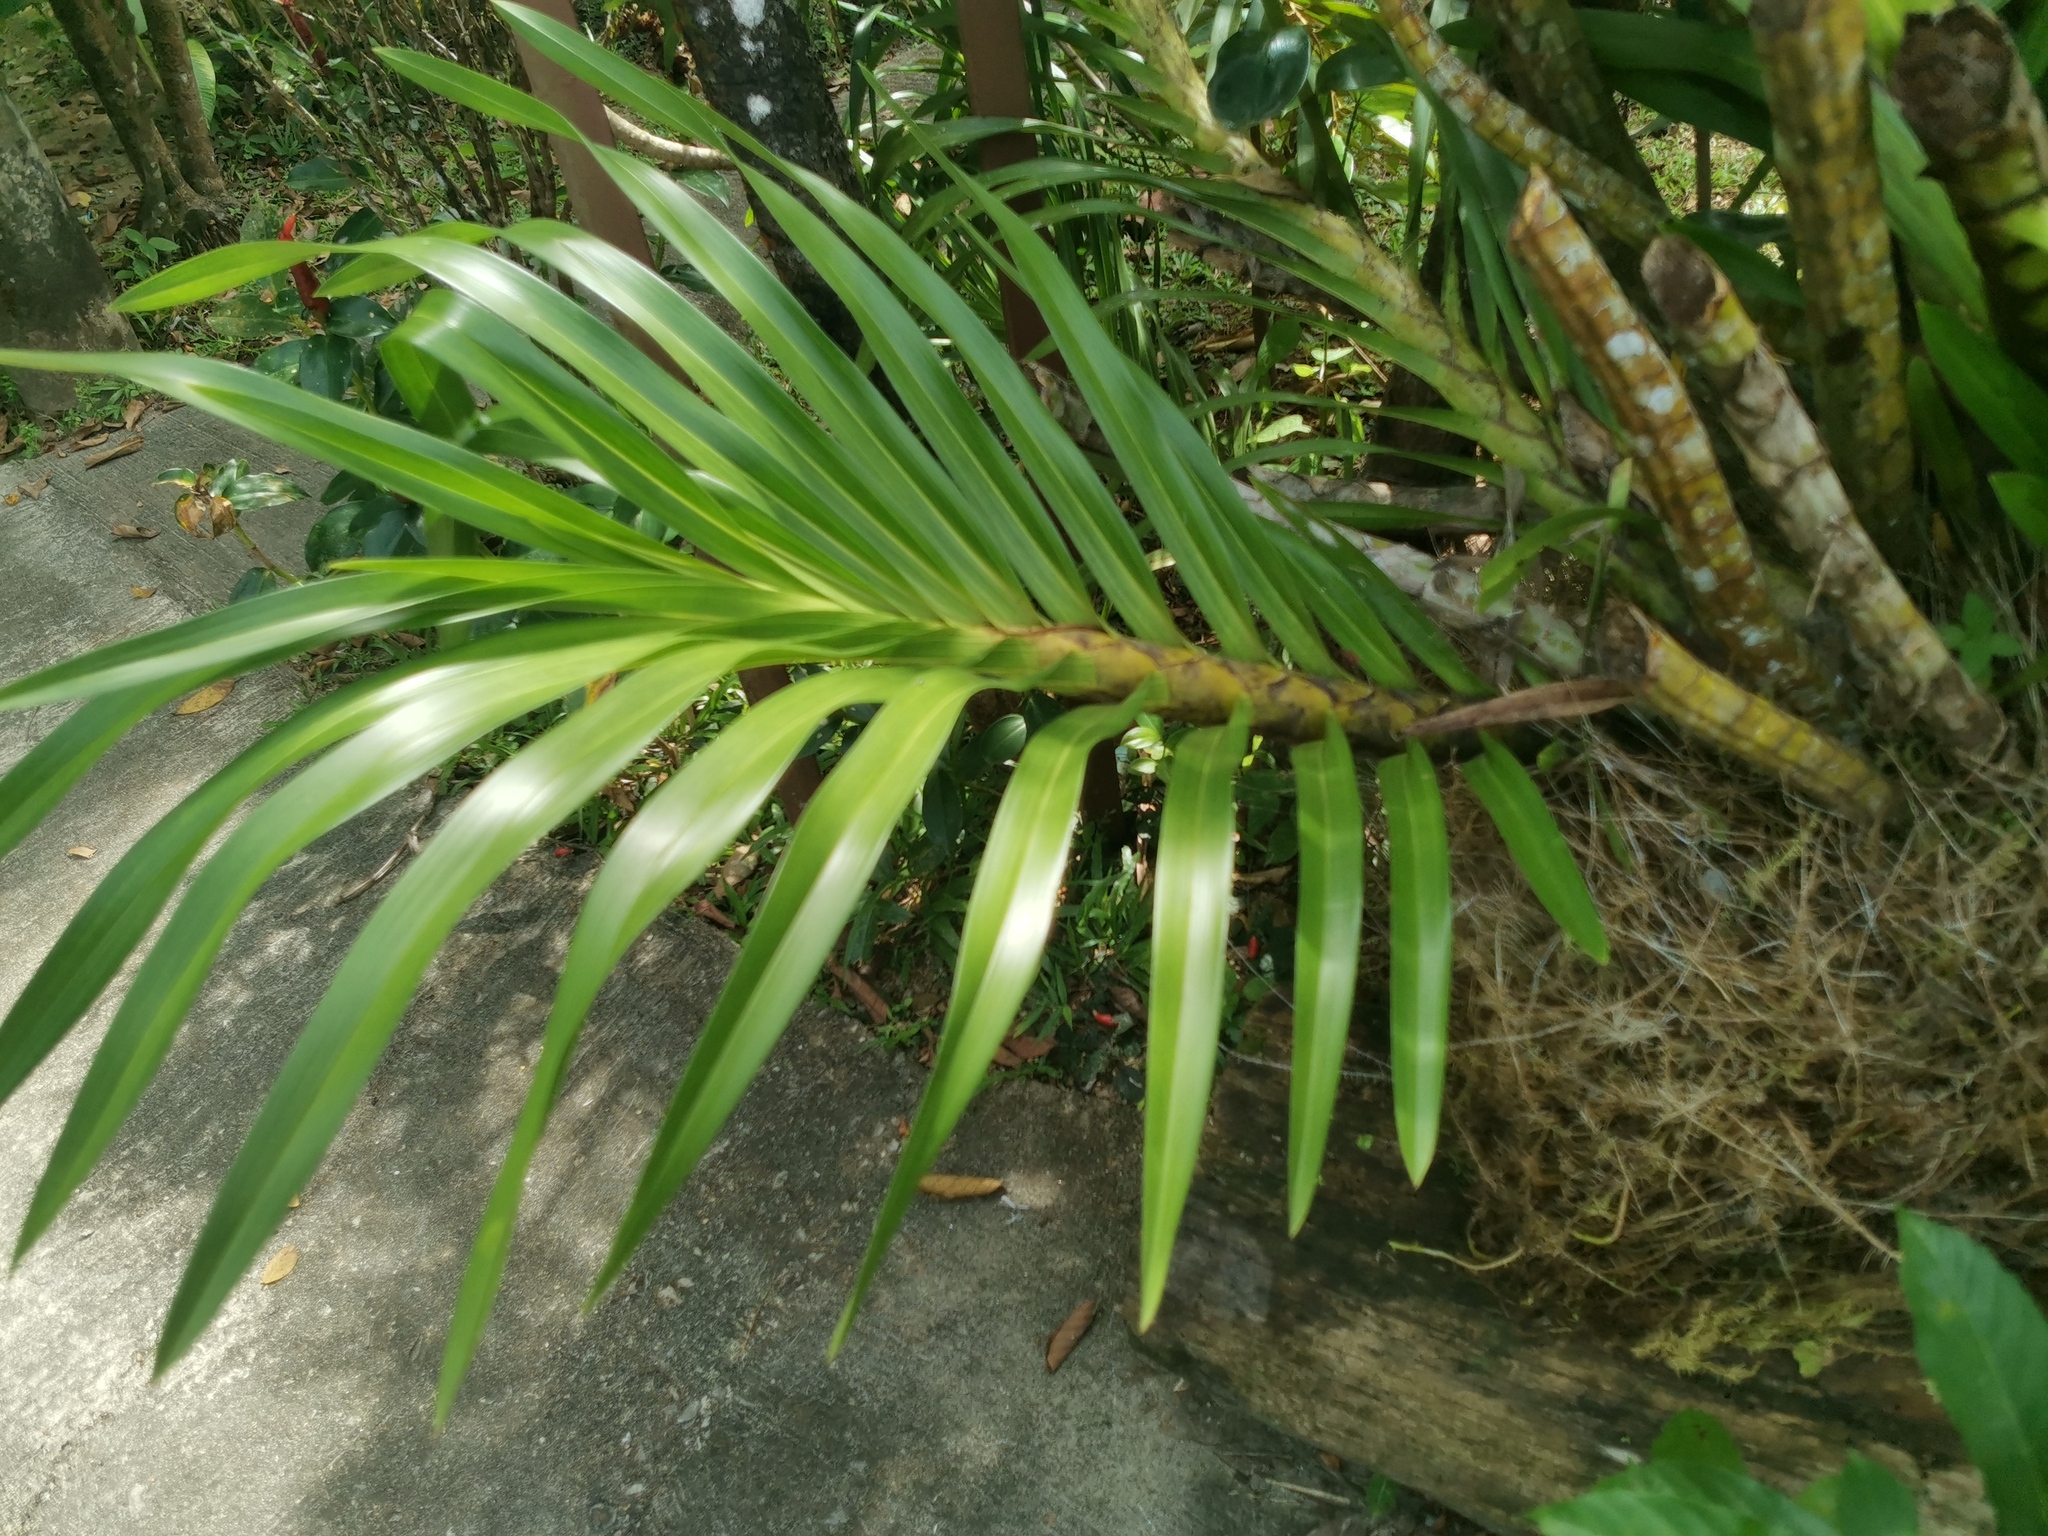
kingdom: Plantae
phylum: Tracheophyta
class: Liliopsida
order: Asparagales
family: Orchidaceae
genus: Grammatophyllum
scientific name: Grammatophyllum speciosum
